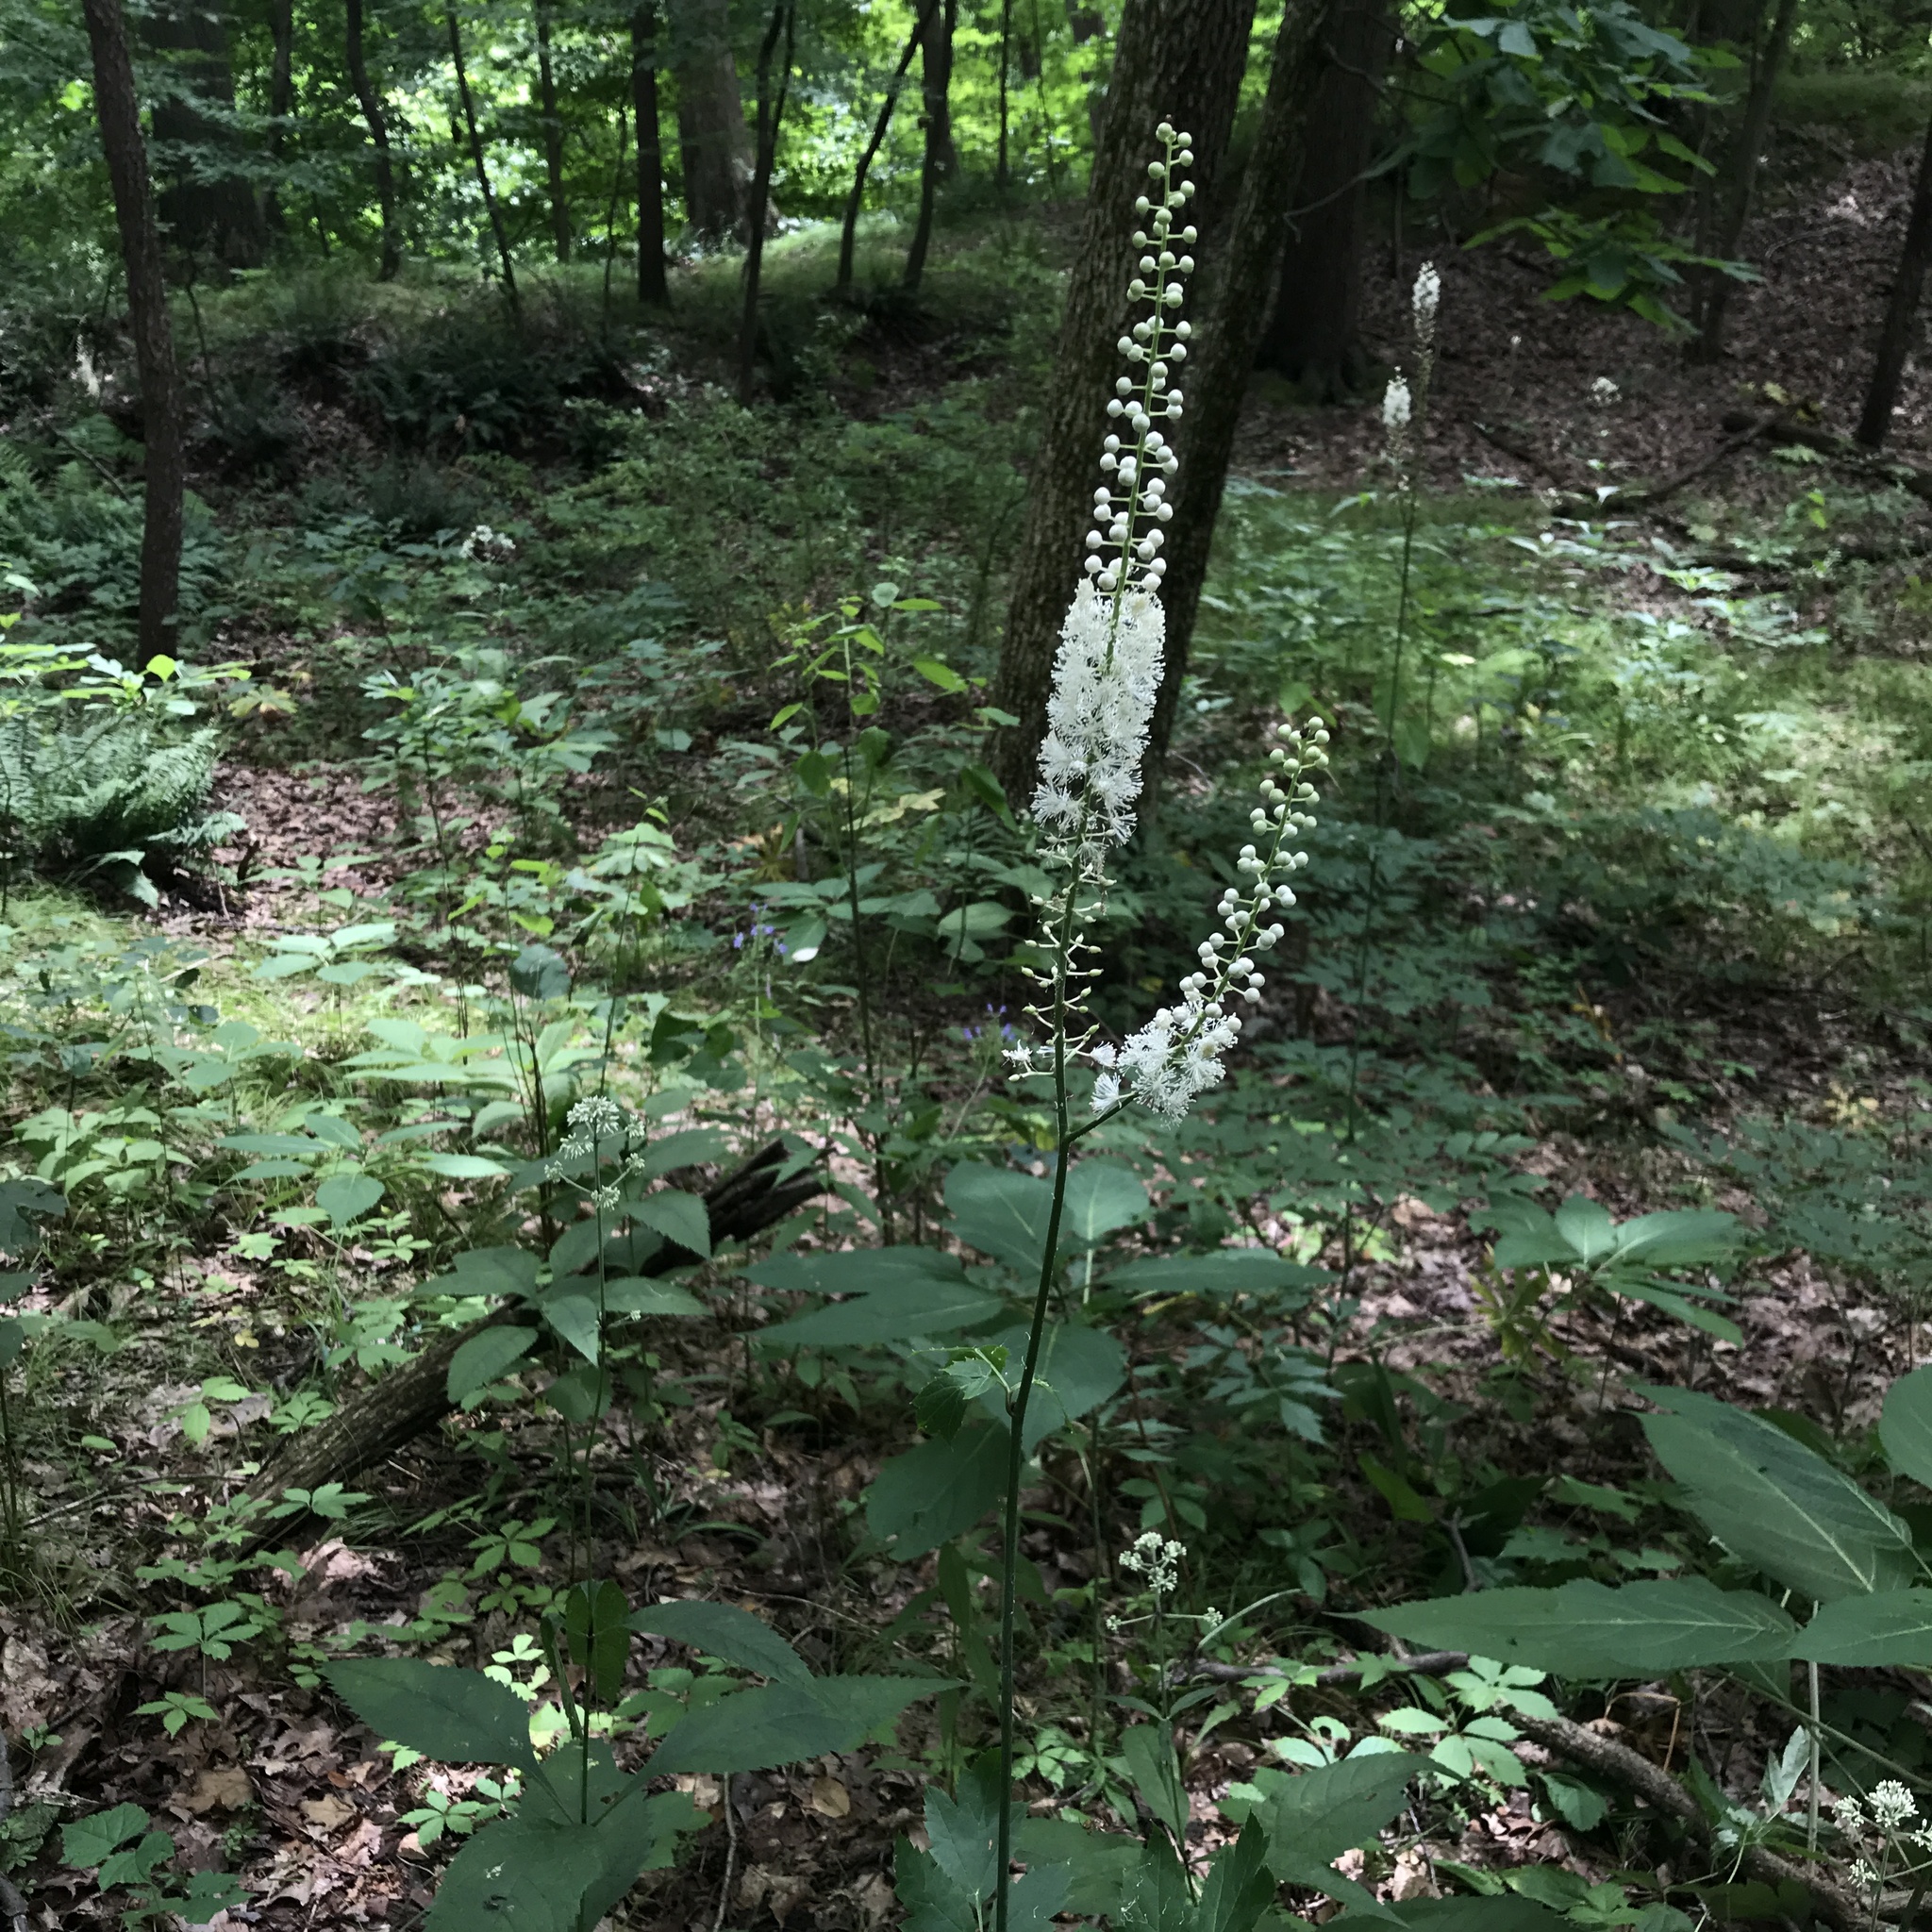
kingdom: Plantae
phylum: Tracheophyta
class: Magnoliopsida
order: Ranunculales
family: Ranunculaceae
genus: Actaea
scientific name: Actaea racemosa
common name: Black cohosh
